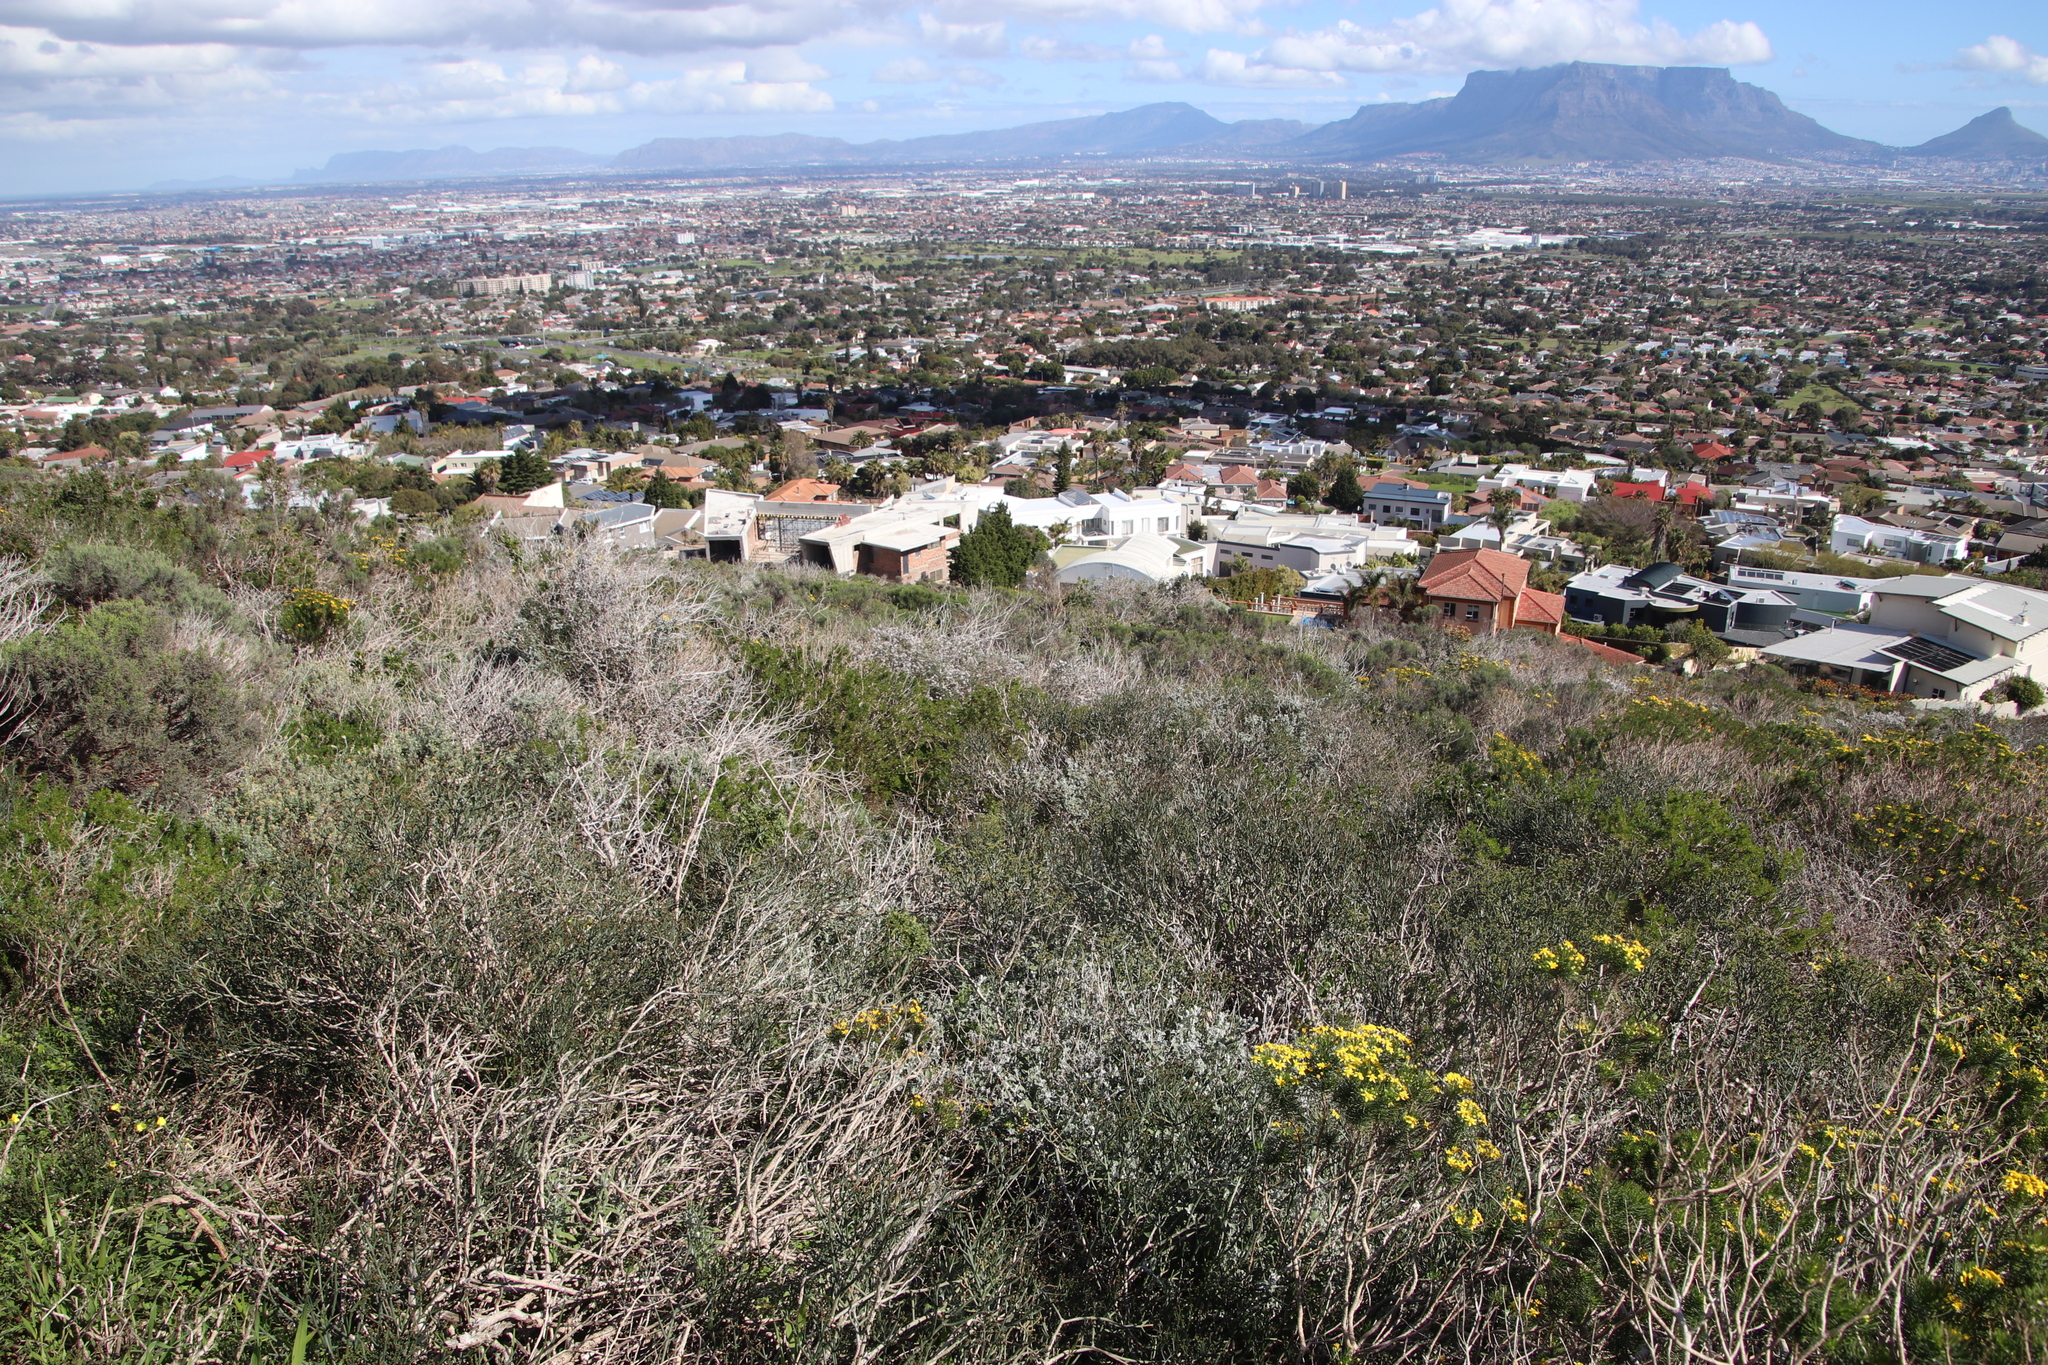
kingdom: Plantae
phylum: Tracheophyta
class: Magnoliopsida
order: Malpighiales
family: Euphorbiaceae
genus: Euphorbia
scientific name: Euphorbia burmanni
